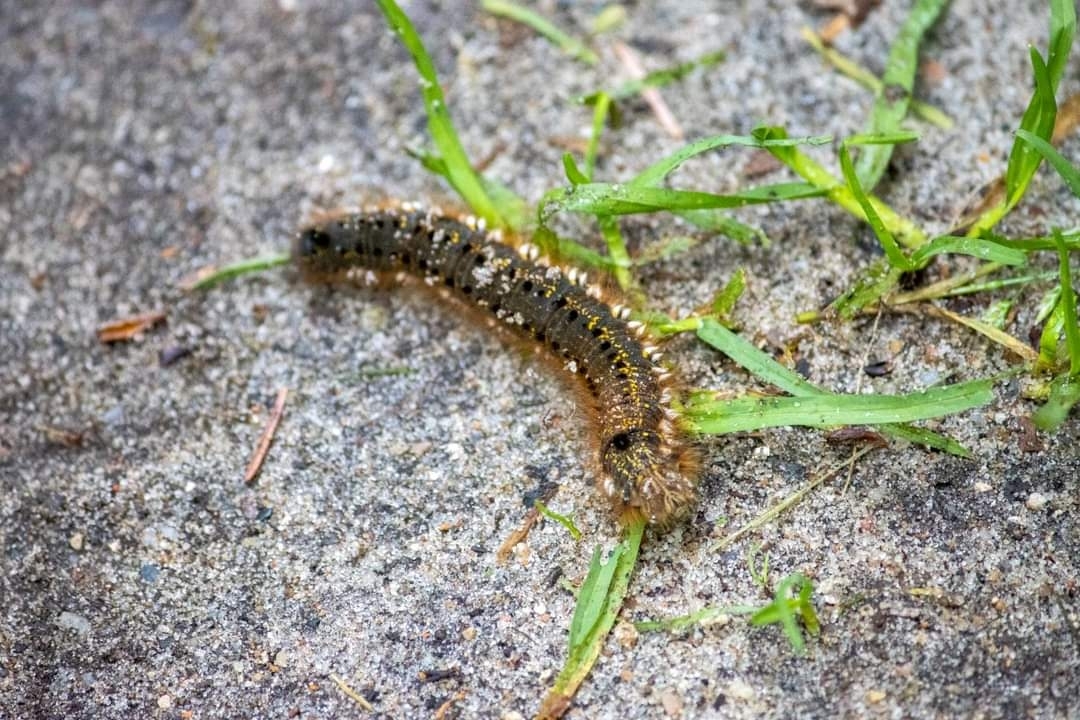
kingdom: Animalia
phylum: Arthropoda
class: Insecta
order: Lepidoptera
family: Lasiocampidae
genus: Euthrix
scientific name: Euthrix potatoria
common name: Drinker
